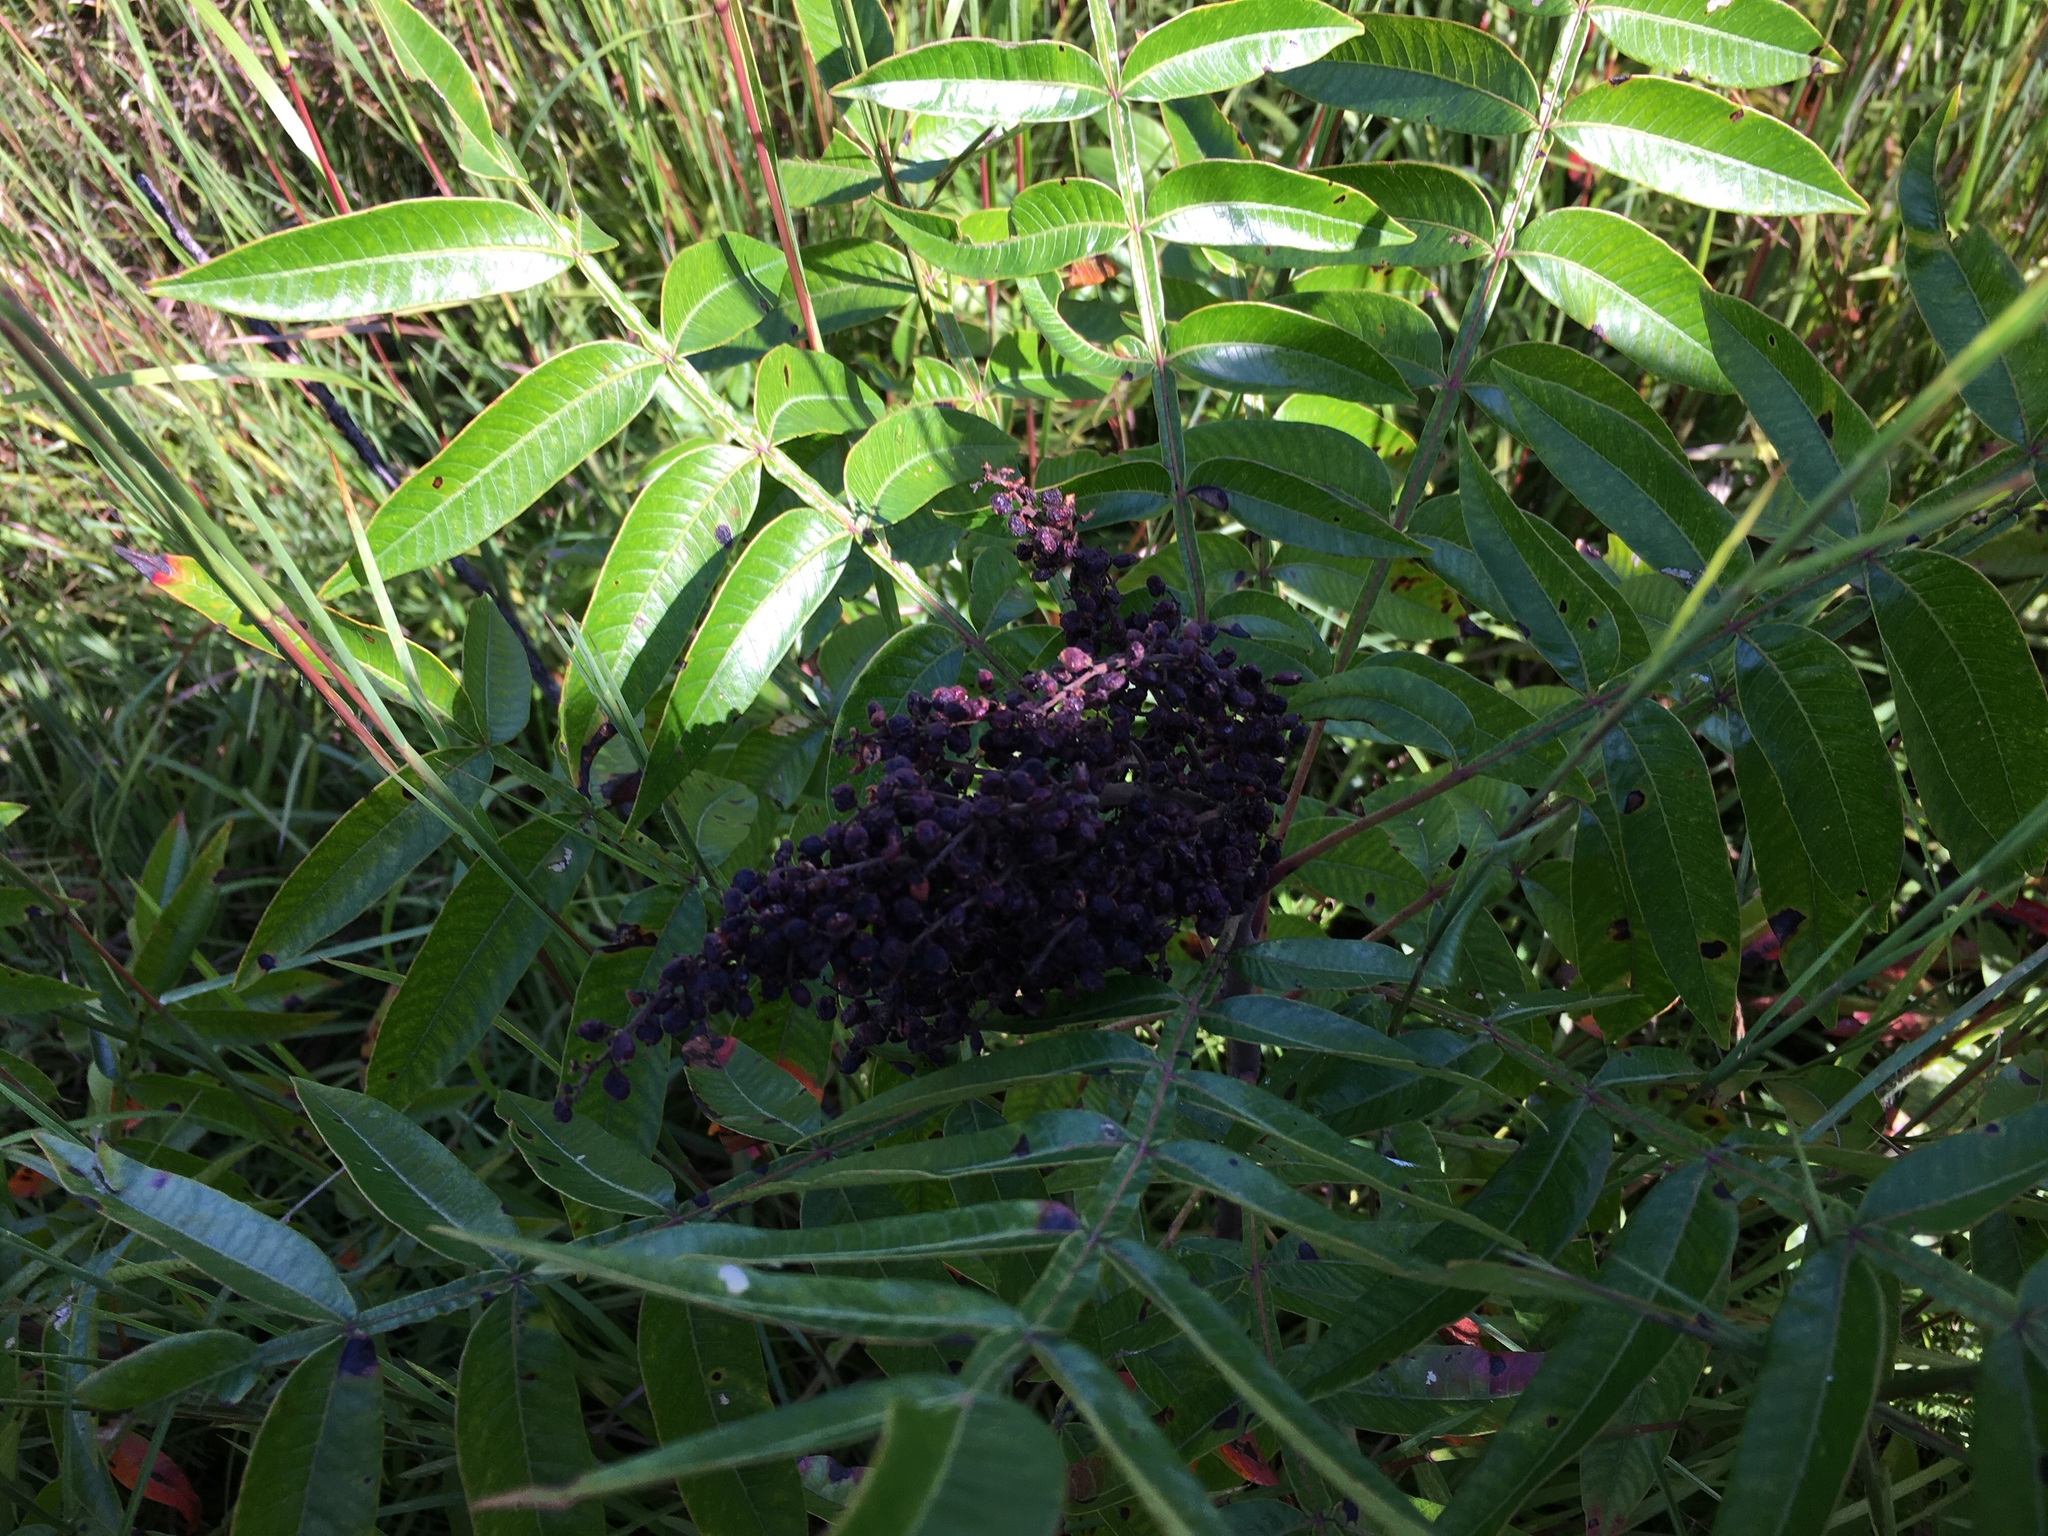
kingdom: Plantae
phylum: Tracheophyta
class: Magnoliopsida
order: Sapindales
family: Anacardiaceae
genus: Rhus
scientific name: Rhus copallina
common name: Shining sumac
